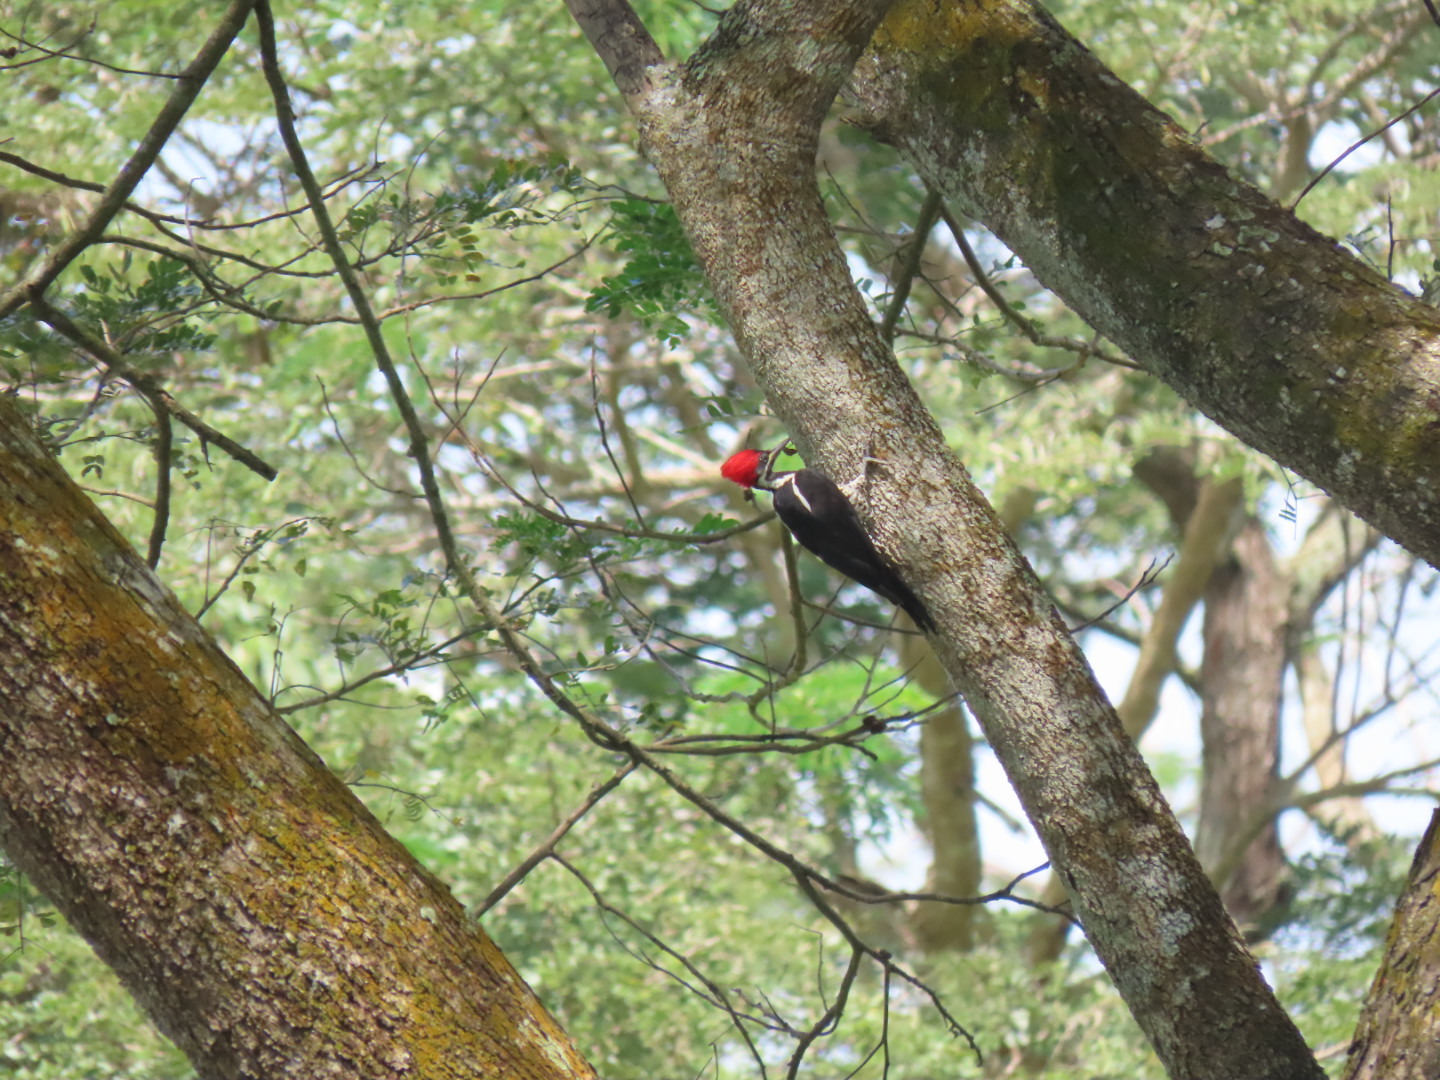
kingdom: Animalia
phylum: Chordata
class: Aves
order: Piciformes
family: Picidae
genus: Dryocopus
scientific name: Dryocopus lineatus
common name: Lineated woodpecker
